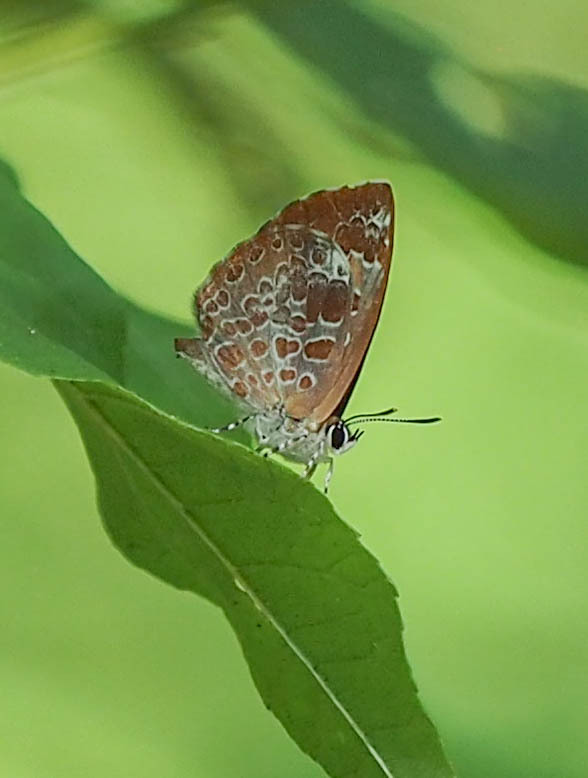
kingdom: Animalia
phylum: Arthropoda
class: Insecta
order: Lepidoptera
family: Lycaenidae
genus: Feniseca
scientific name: Feniseca tarquinius
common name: Harvester
